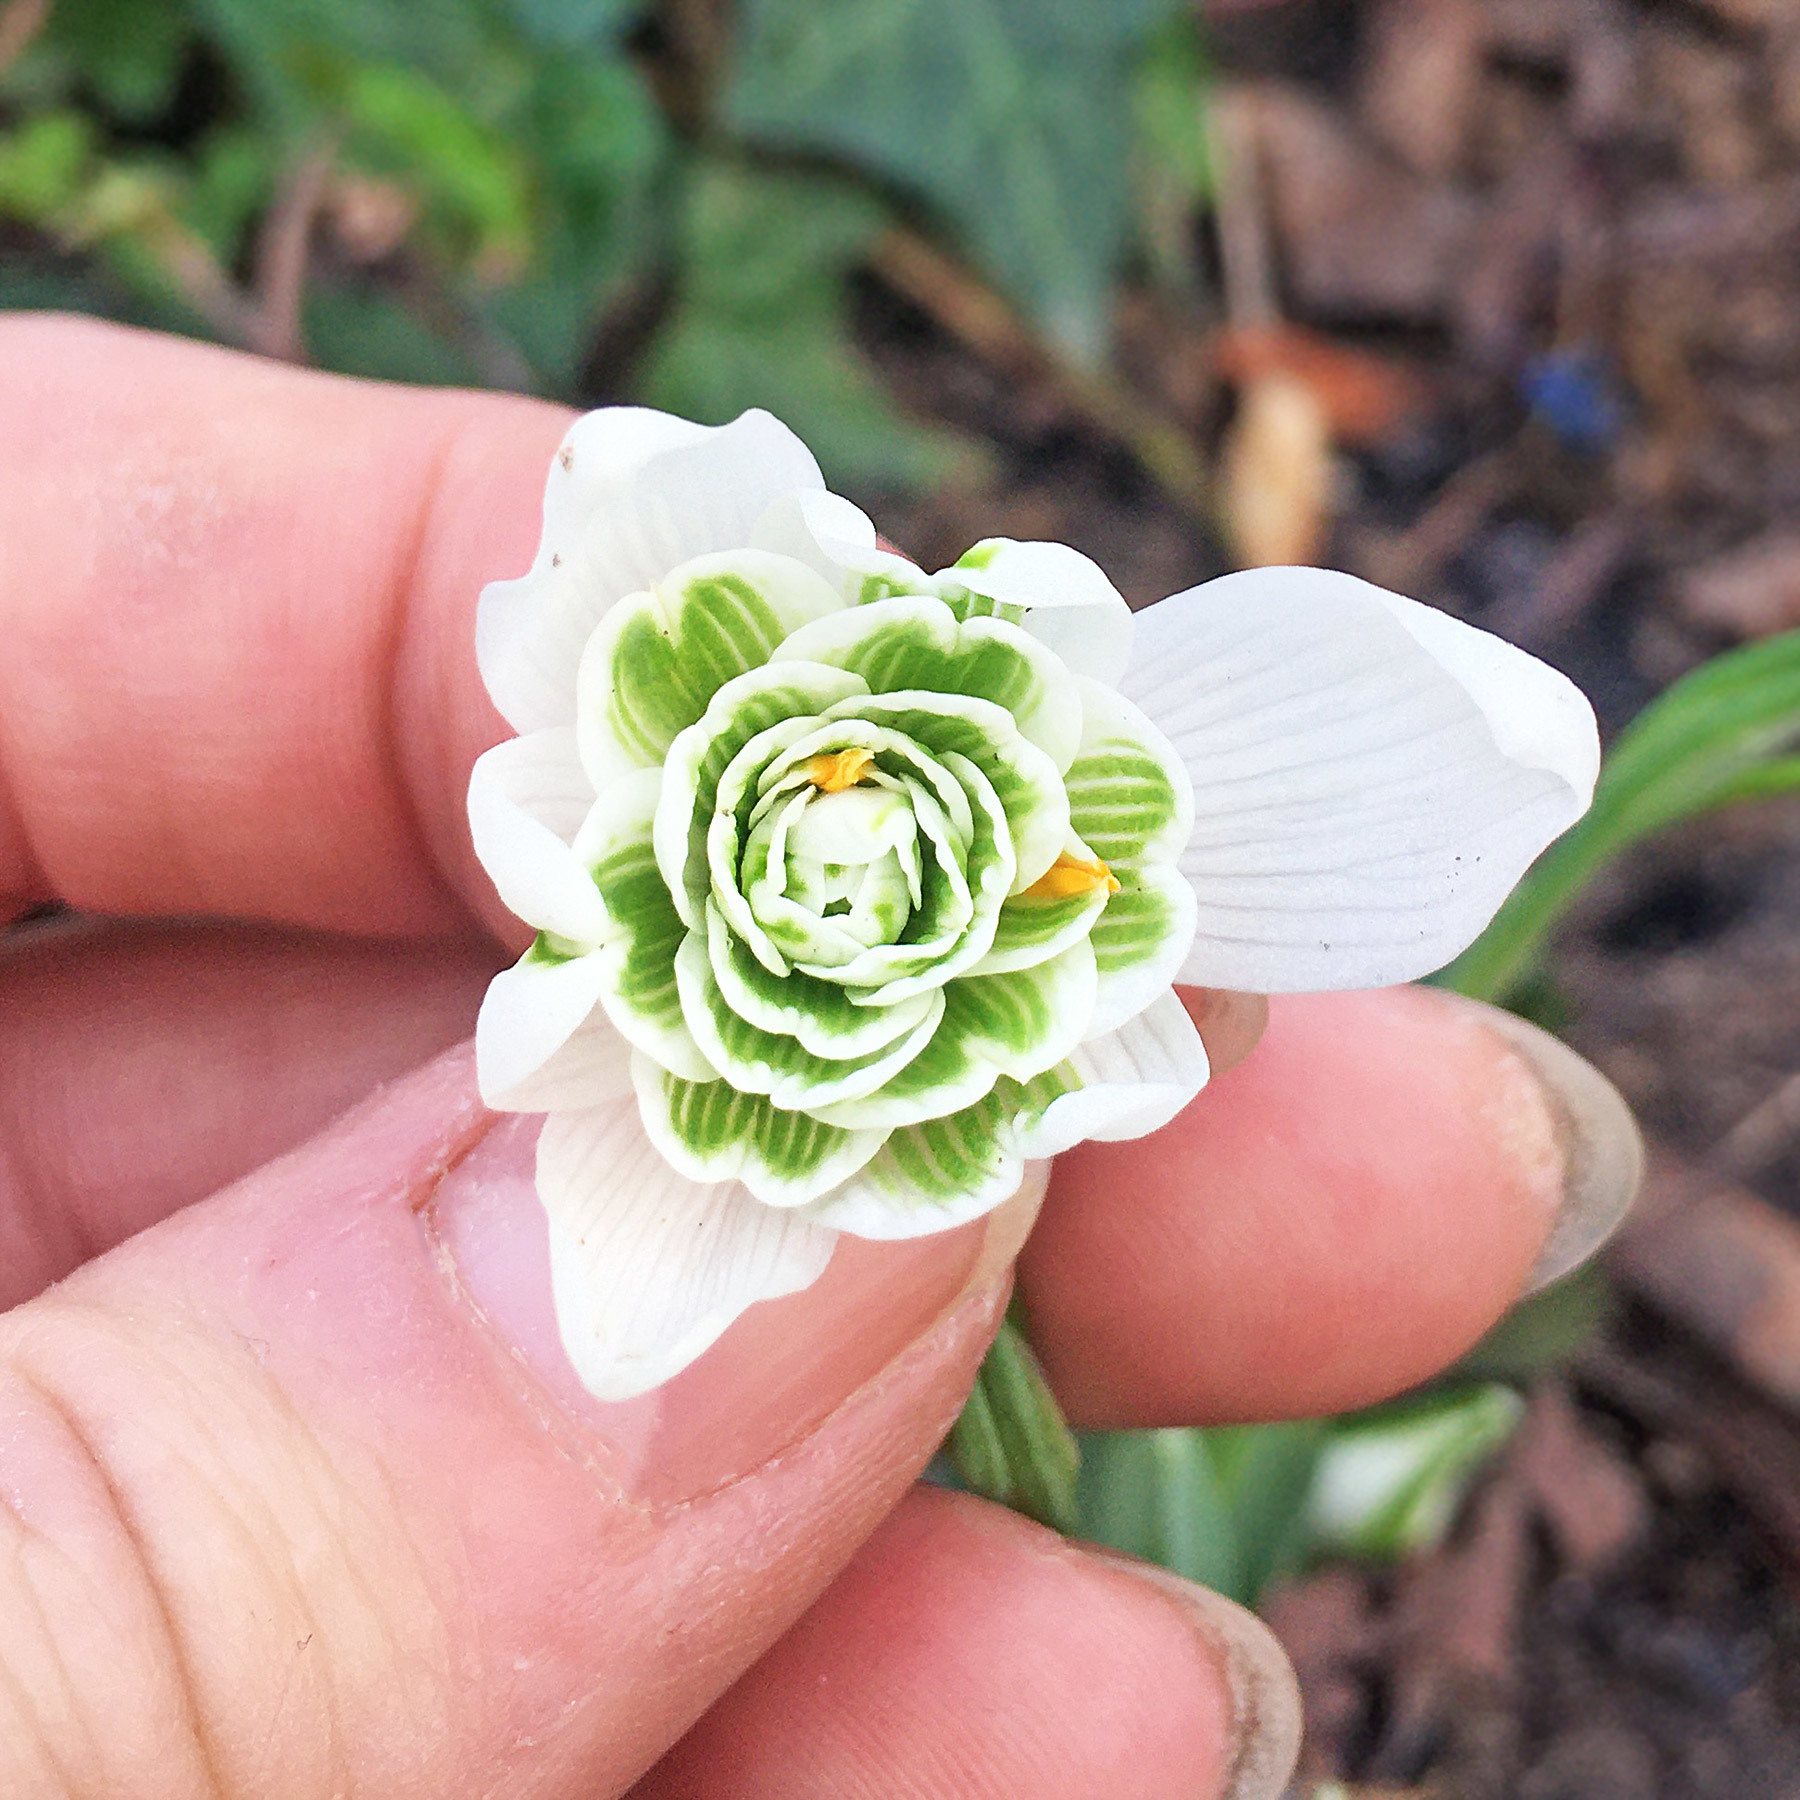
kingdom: Plantae
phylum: Tracheophyta
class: Liliopsida
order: Asparagales
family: Amaryllidaceae
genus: Galanthus
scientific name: Galanthus nivalis
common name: Snowdrop
